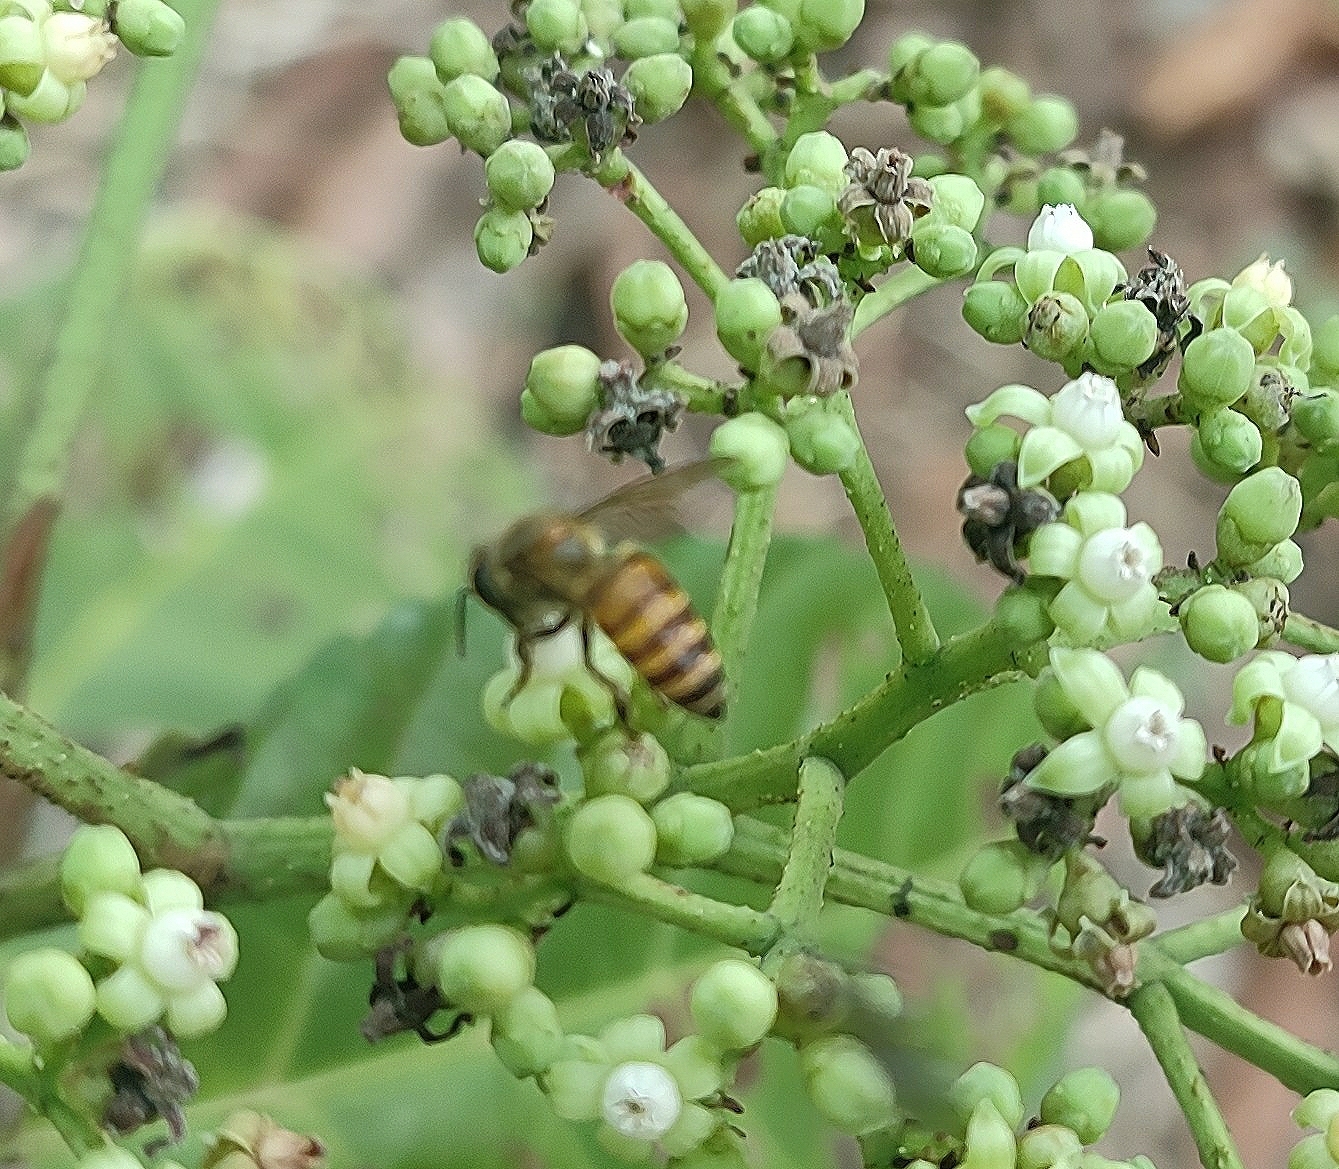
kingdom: Animalia
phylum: Arthropoda
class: Insecta
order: Hymenoptera
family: Apidae
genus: Apis
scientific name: Apis cerana
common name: Honey bee
